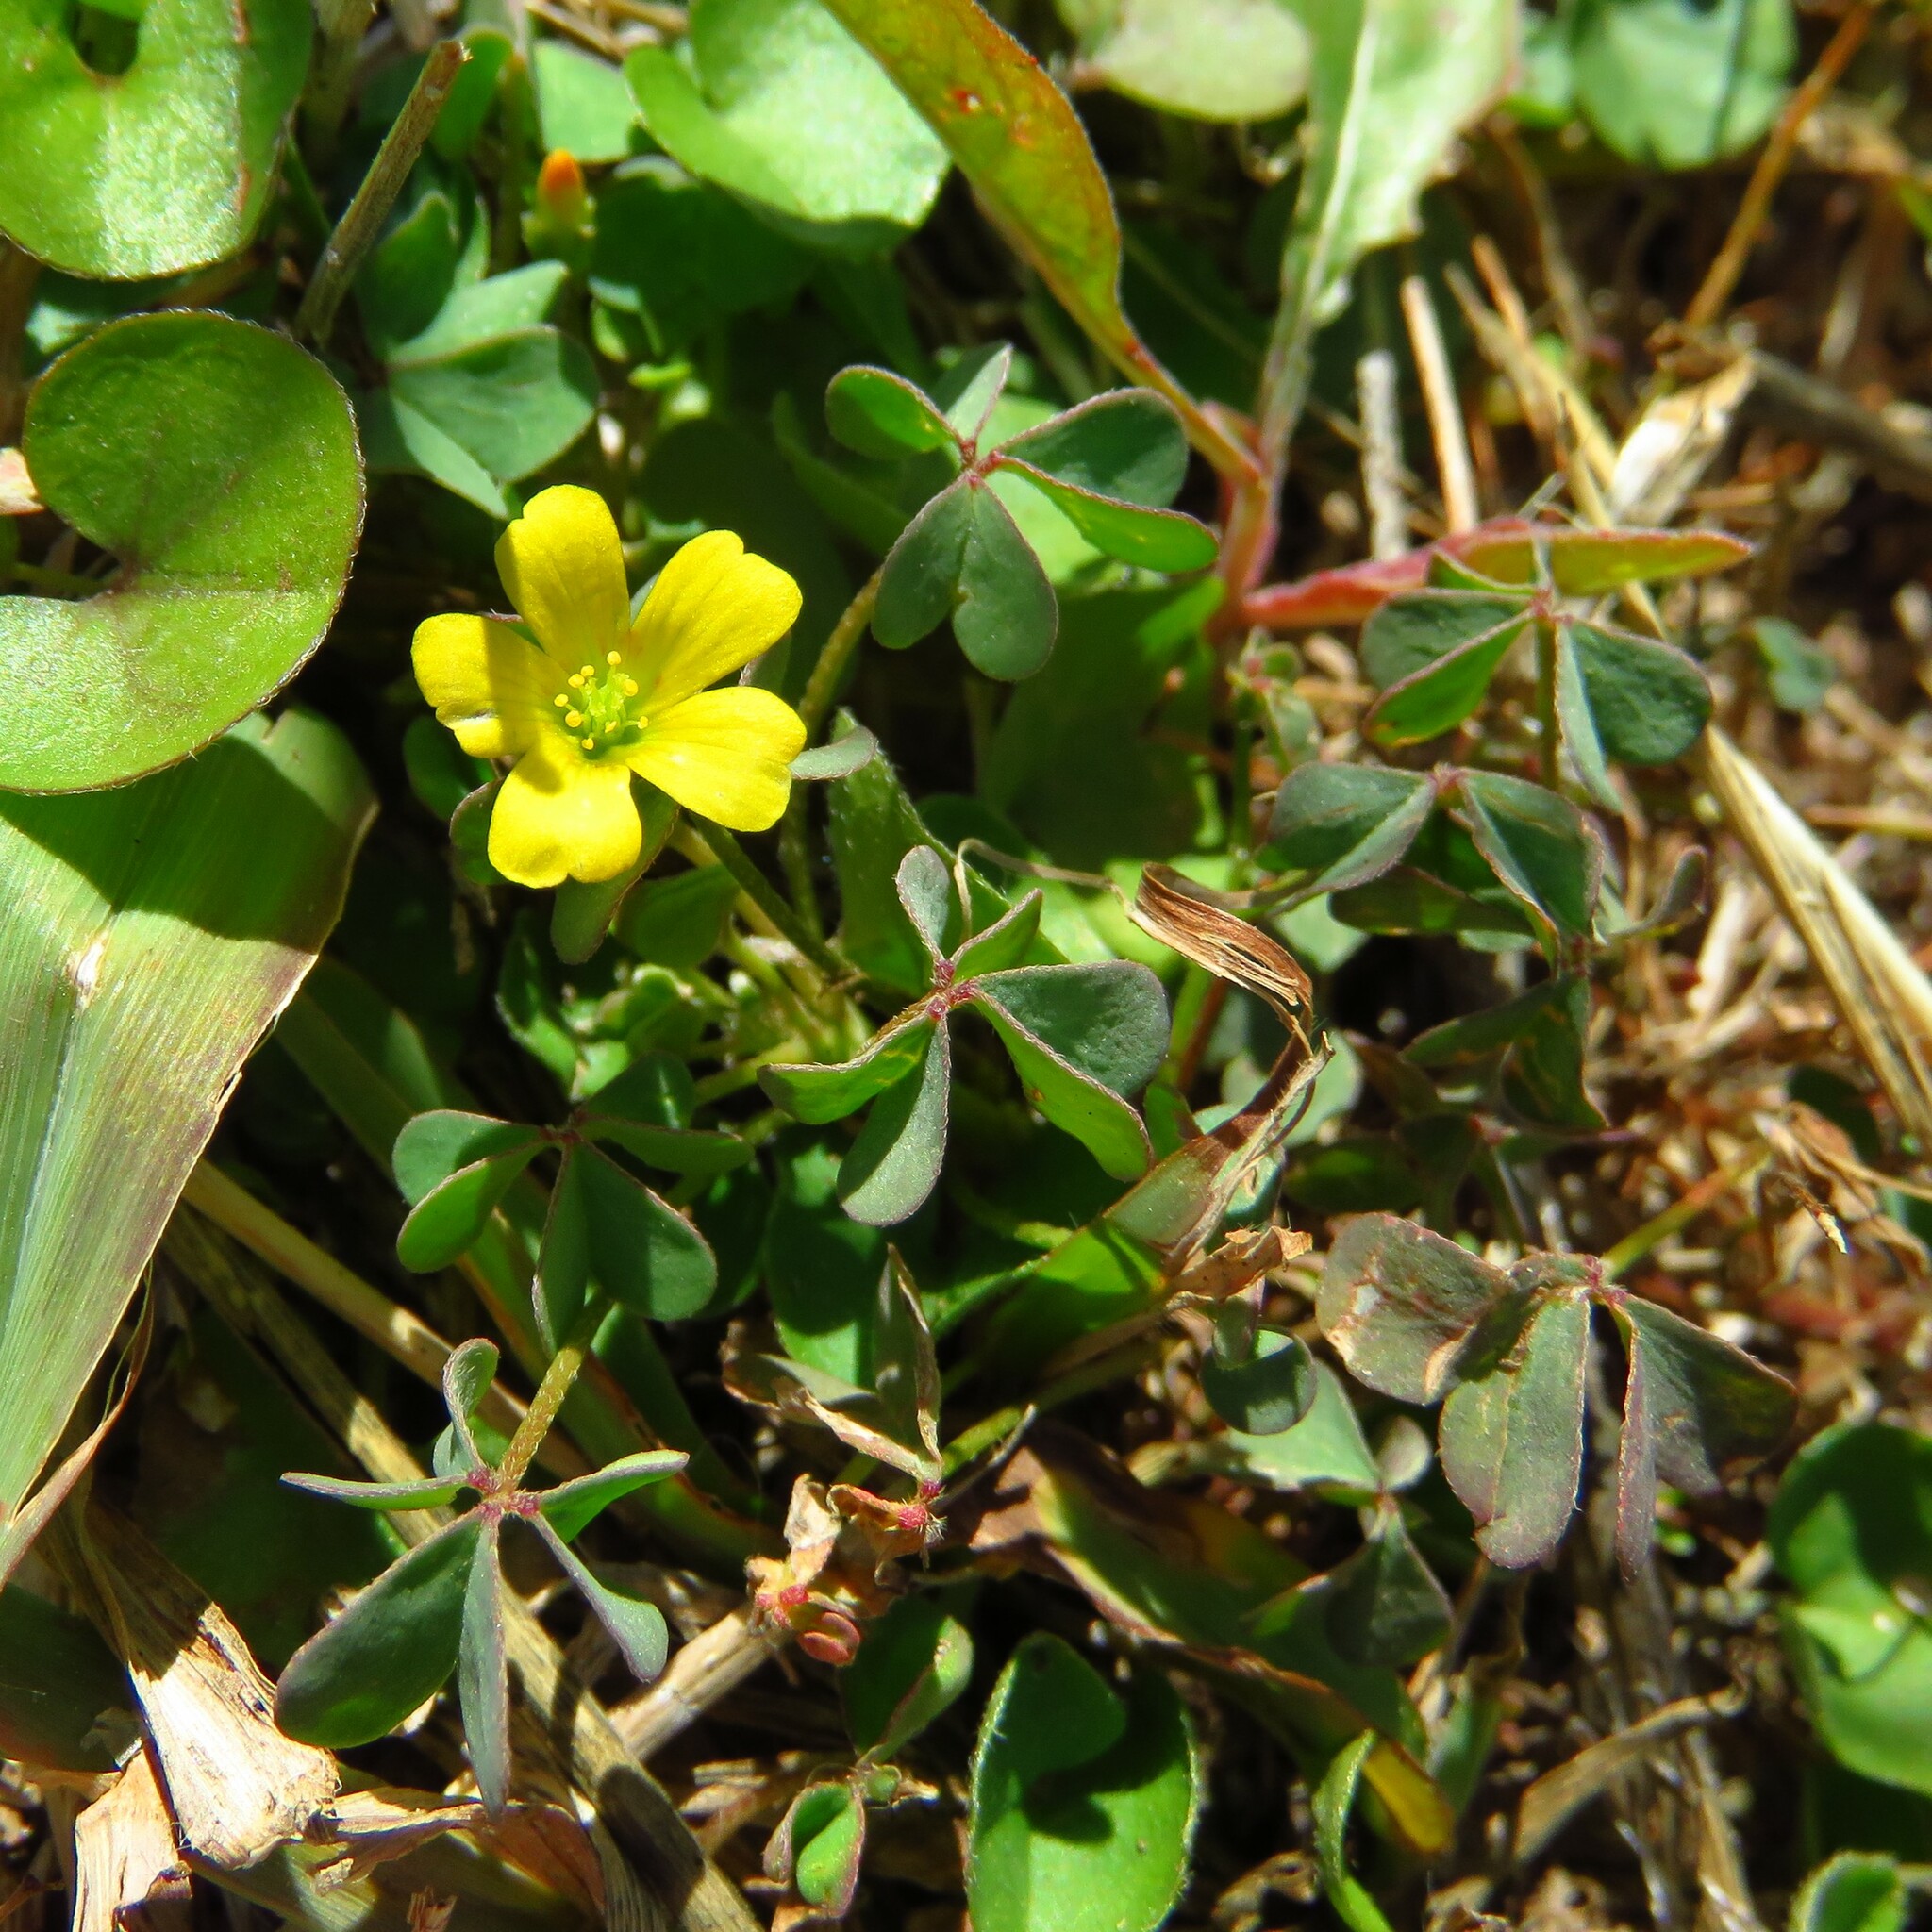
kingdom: Plantae
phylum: Tracheophyta
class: Magnoliopsida
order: Oxalidales
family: Oxalidaceae
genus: Oxalis
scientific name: Oxalis dillenii
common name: Sussex yellow-sorrel
